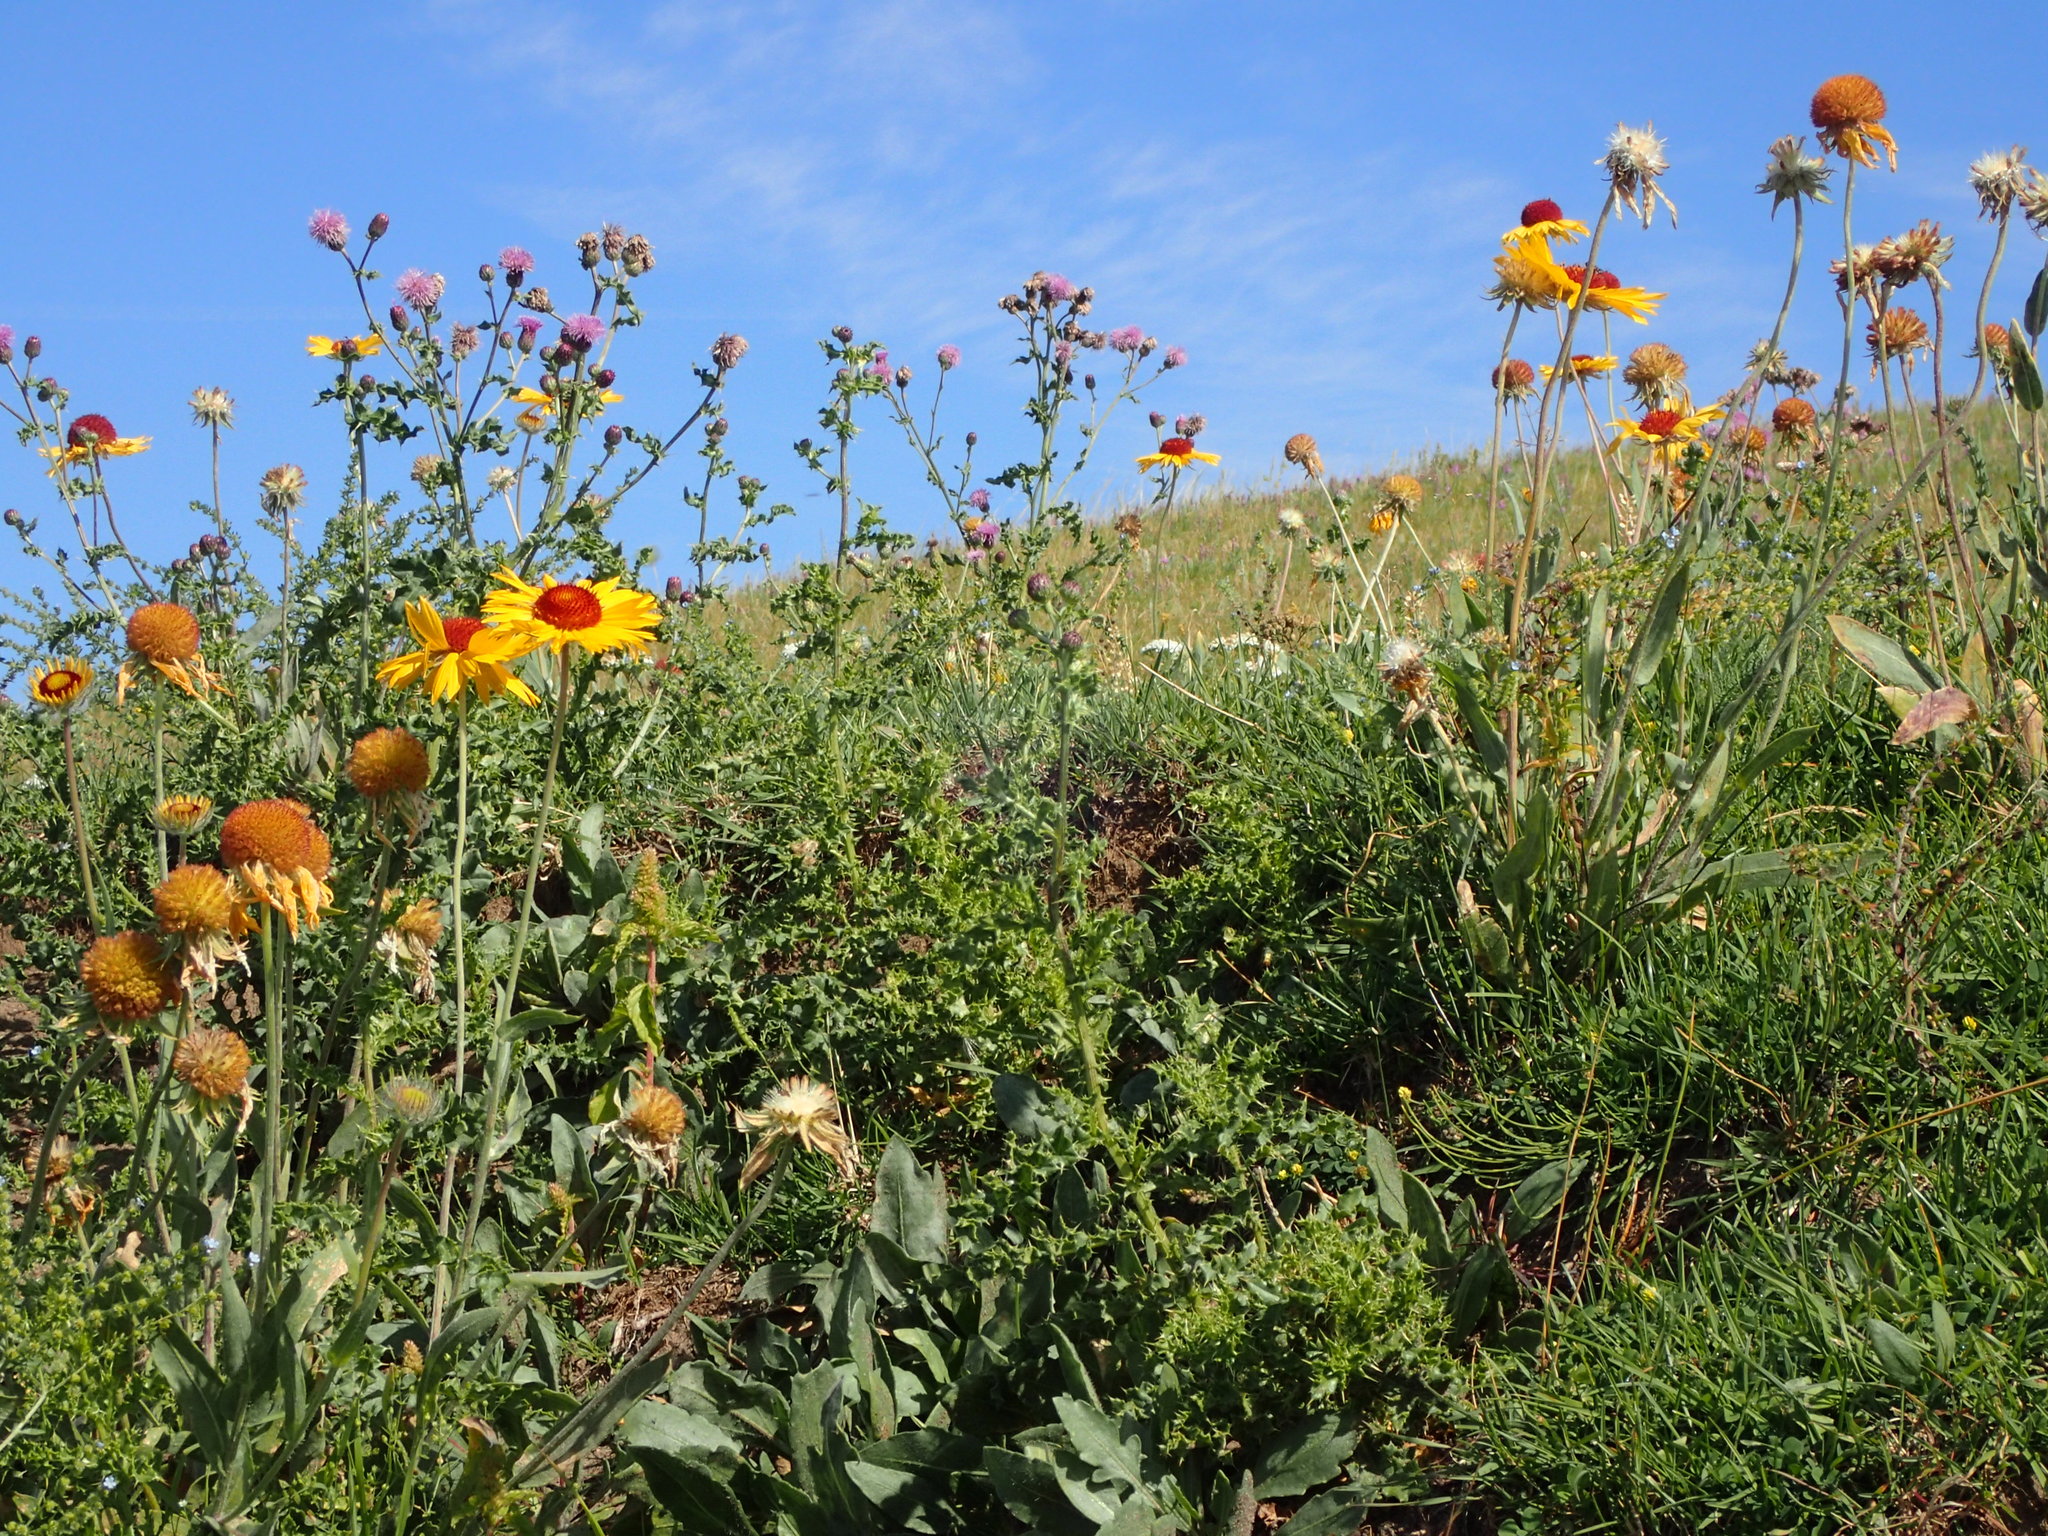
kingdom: Plantae
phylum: Tracheophyta
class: Magnoliopsida
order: Asterales
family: Asteraceae
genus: Gaillardia
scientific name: Gaillardia aristata
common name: Blanket-flower
